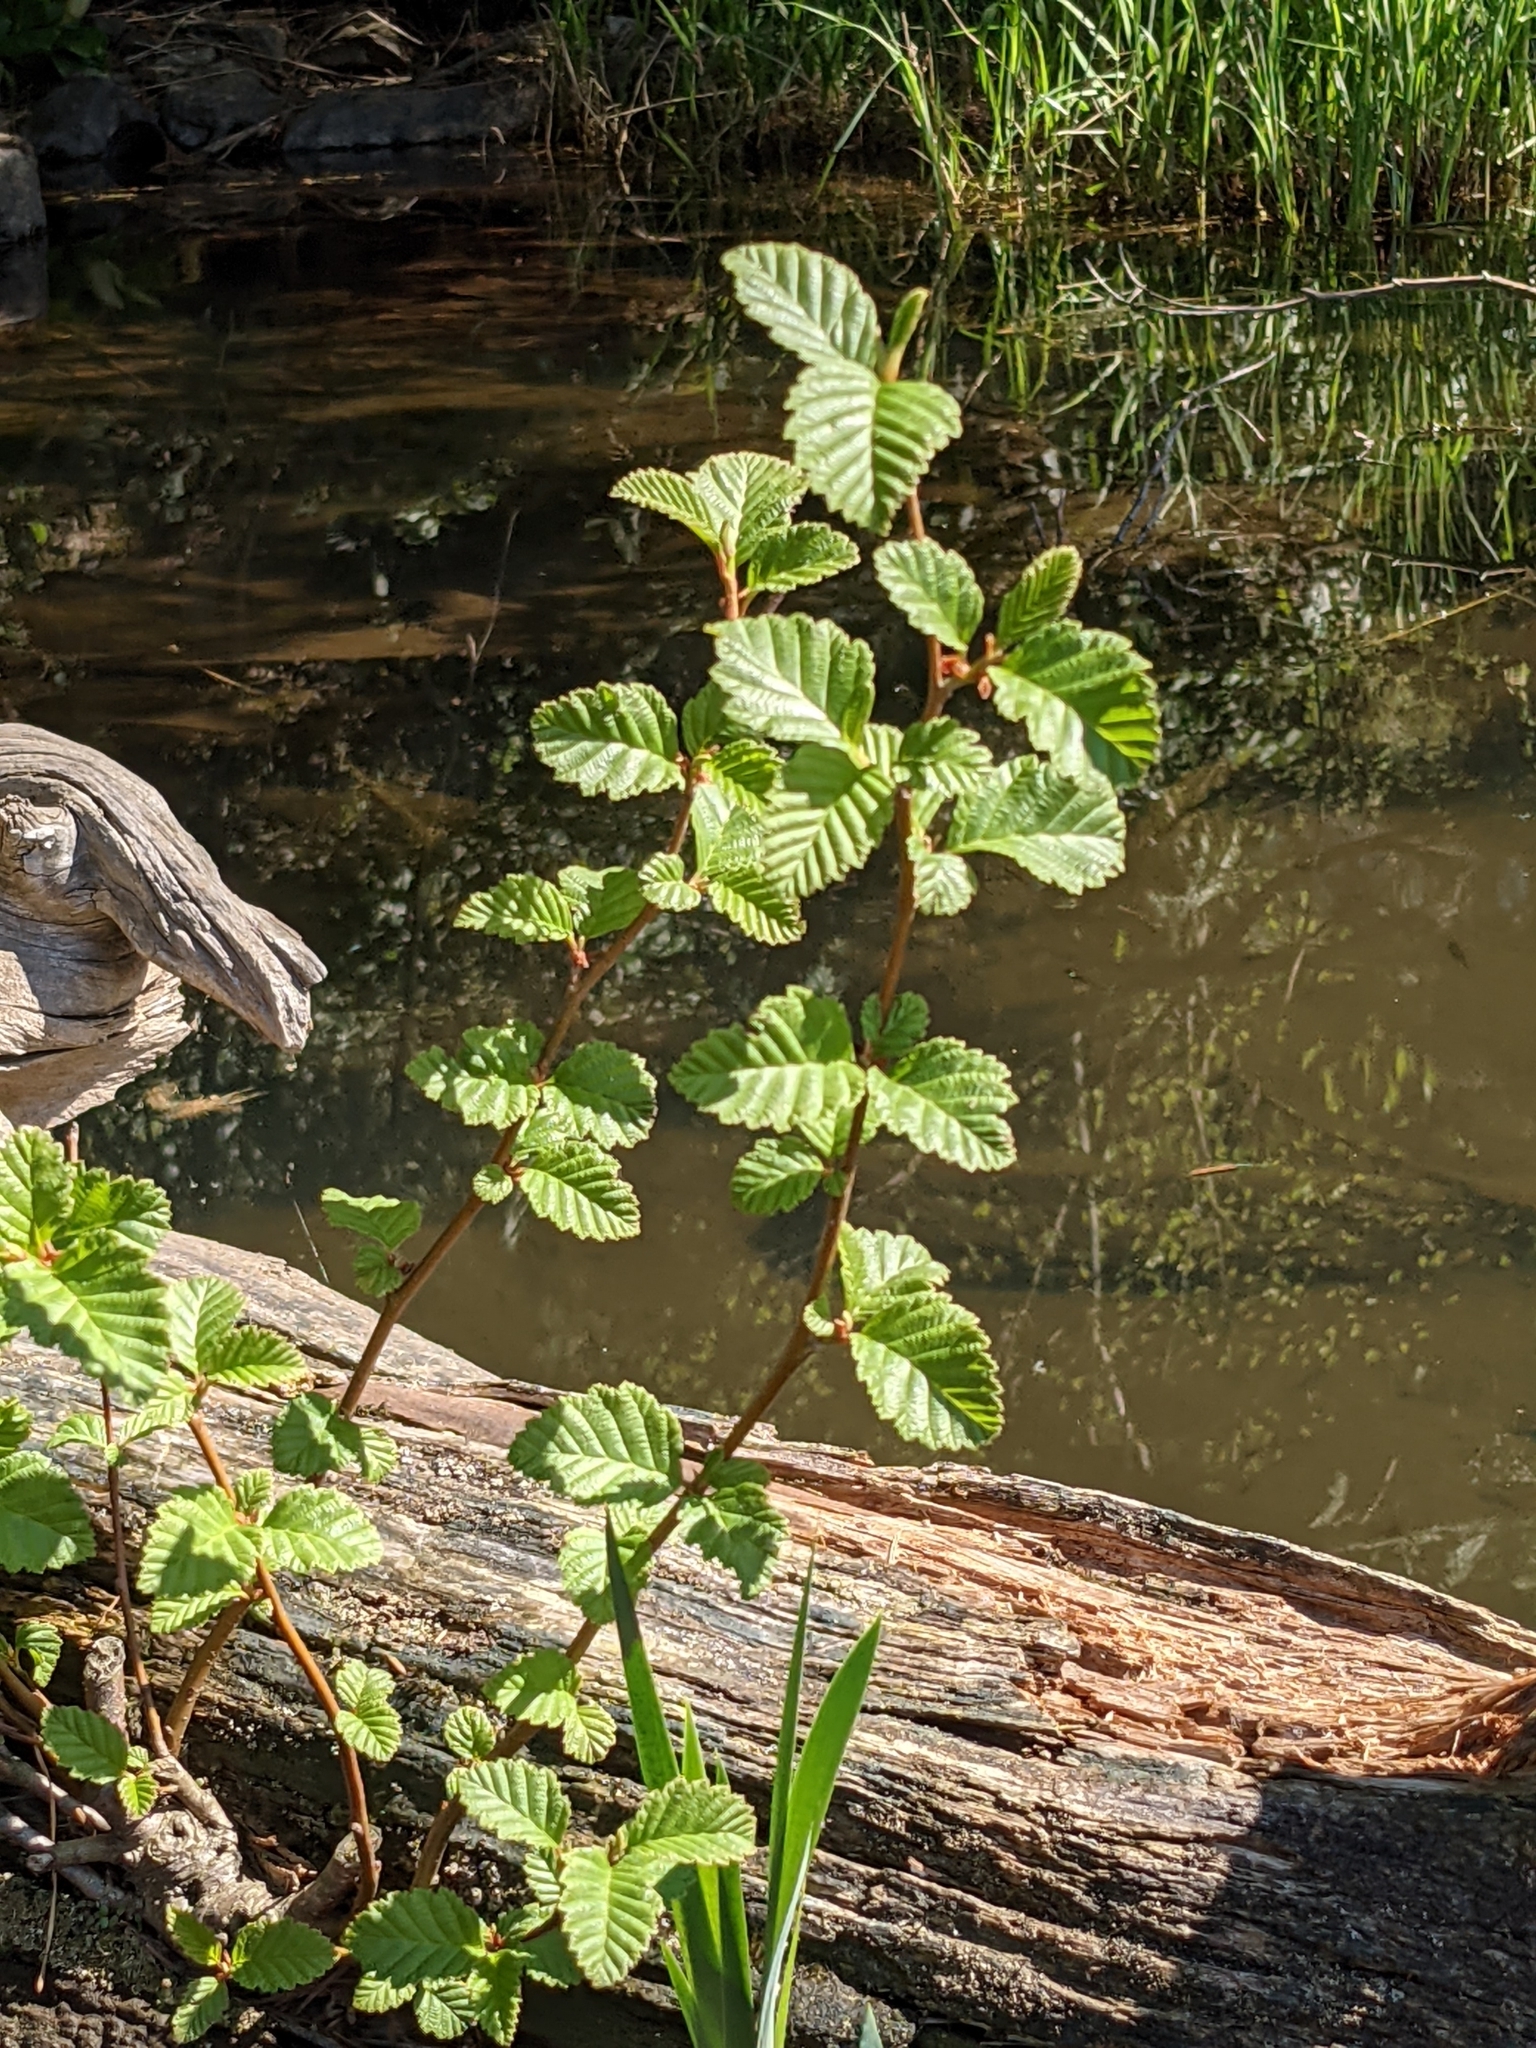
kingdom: Plantae
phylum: Tracheophyta
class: Magnoliopsida
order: Fagales
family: Betulaceae
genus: Alnus
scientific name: Alnus rubra
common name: Red alder
